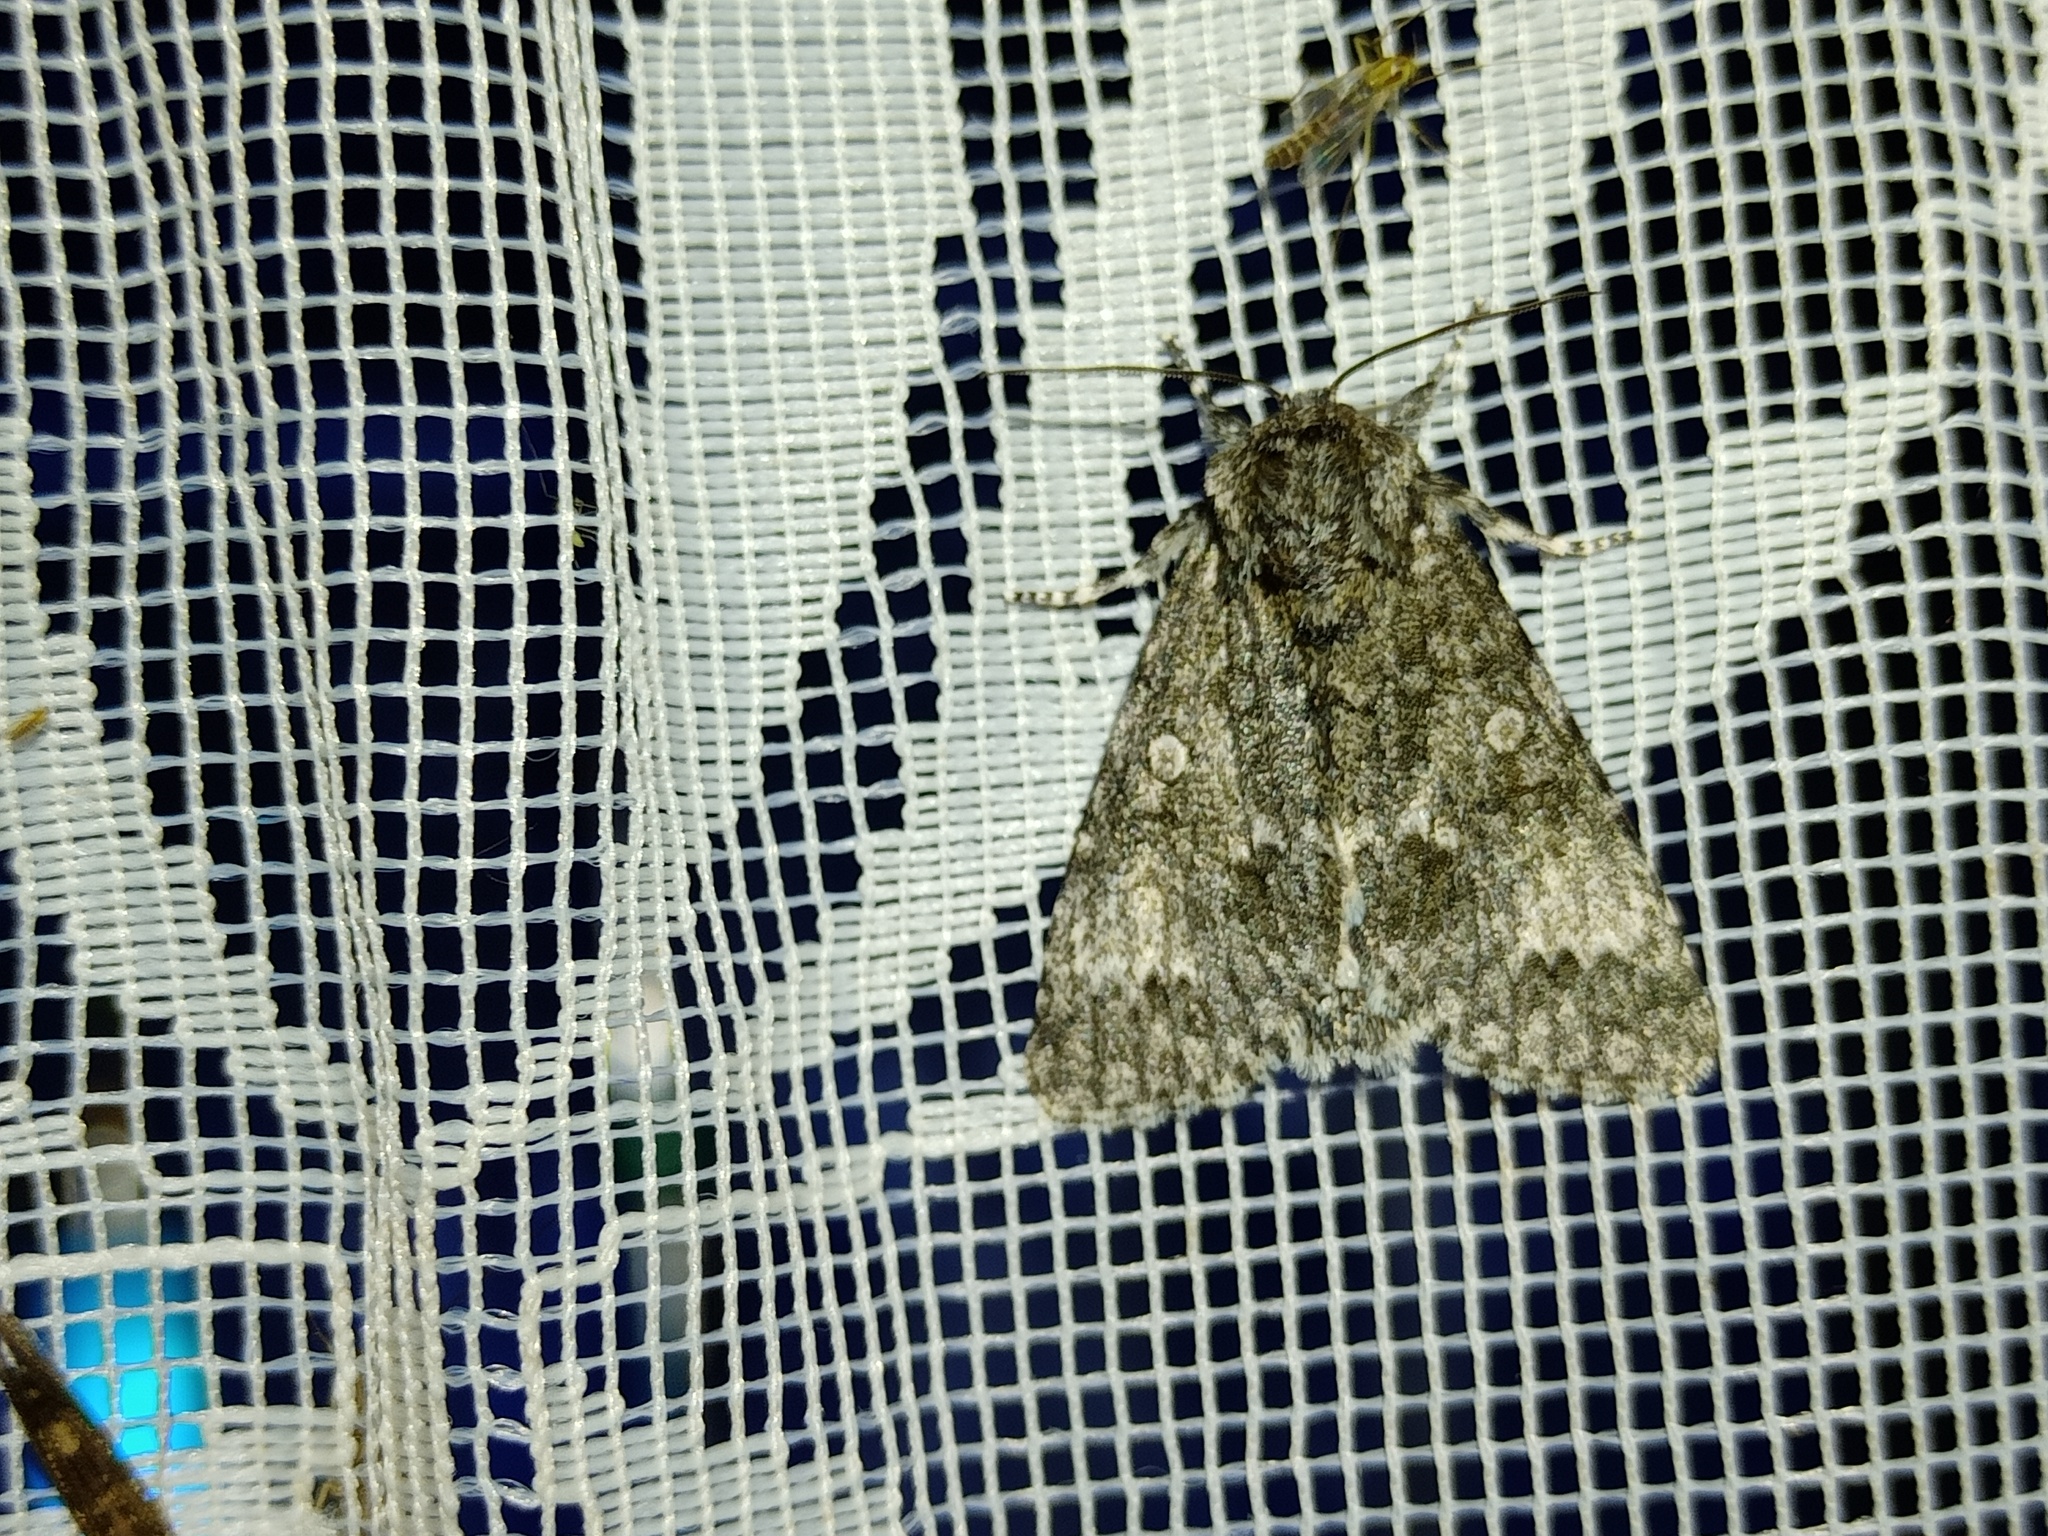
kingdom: Animalia
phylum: Arthropoda
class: Insecta
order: Lepidoptera
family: Noctuidae
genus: Acronicta
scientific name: Acronicta megacephala
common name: Poplar grey
